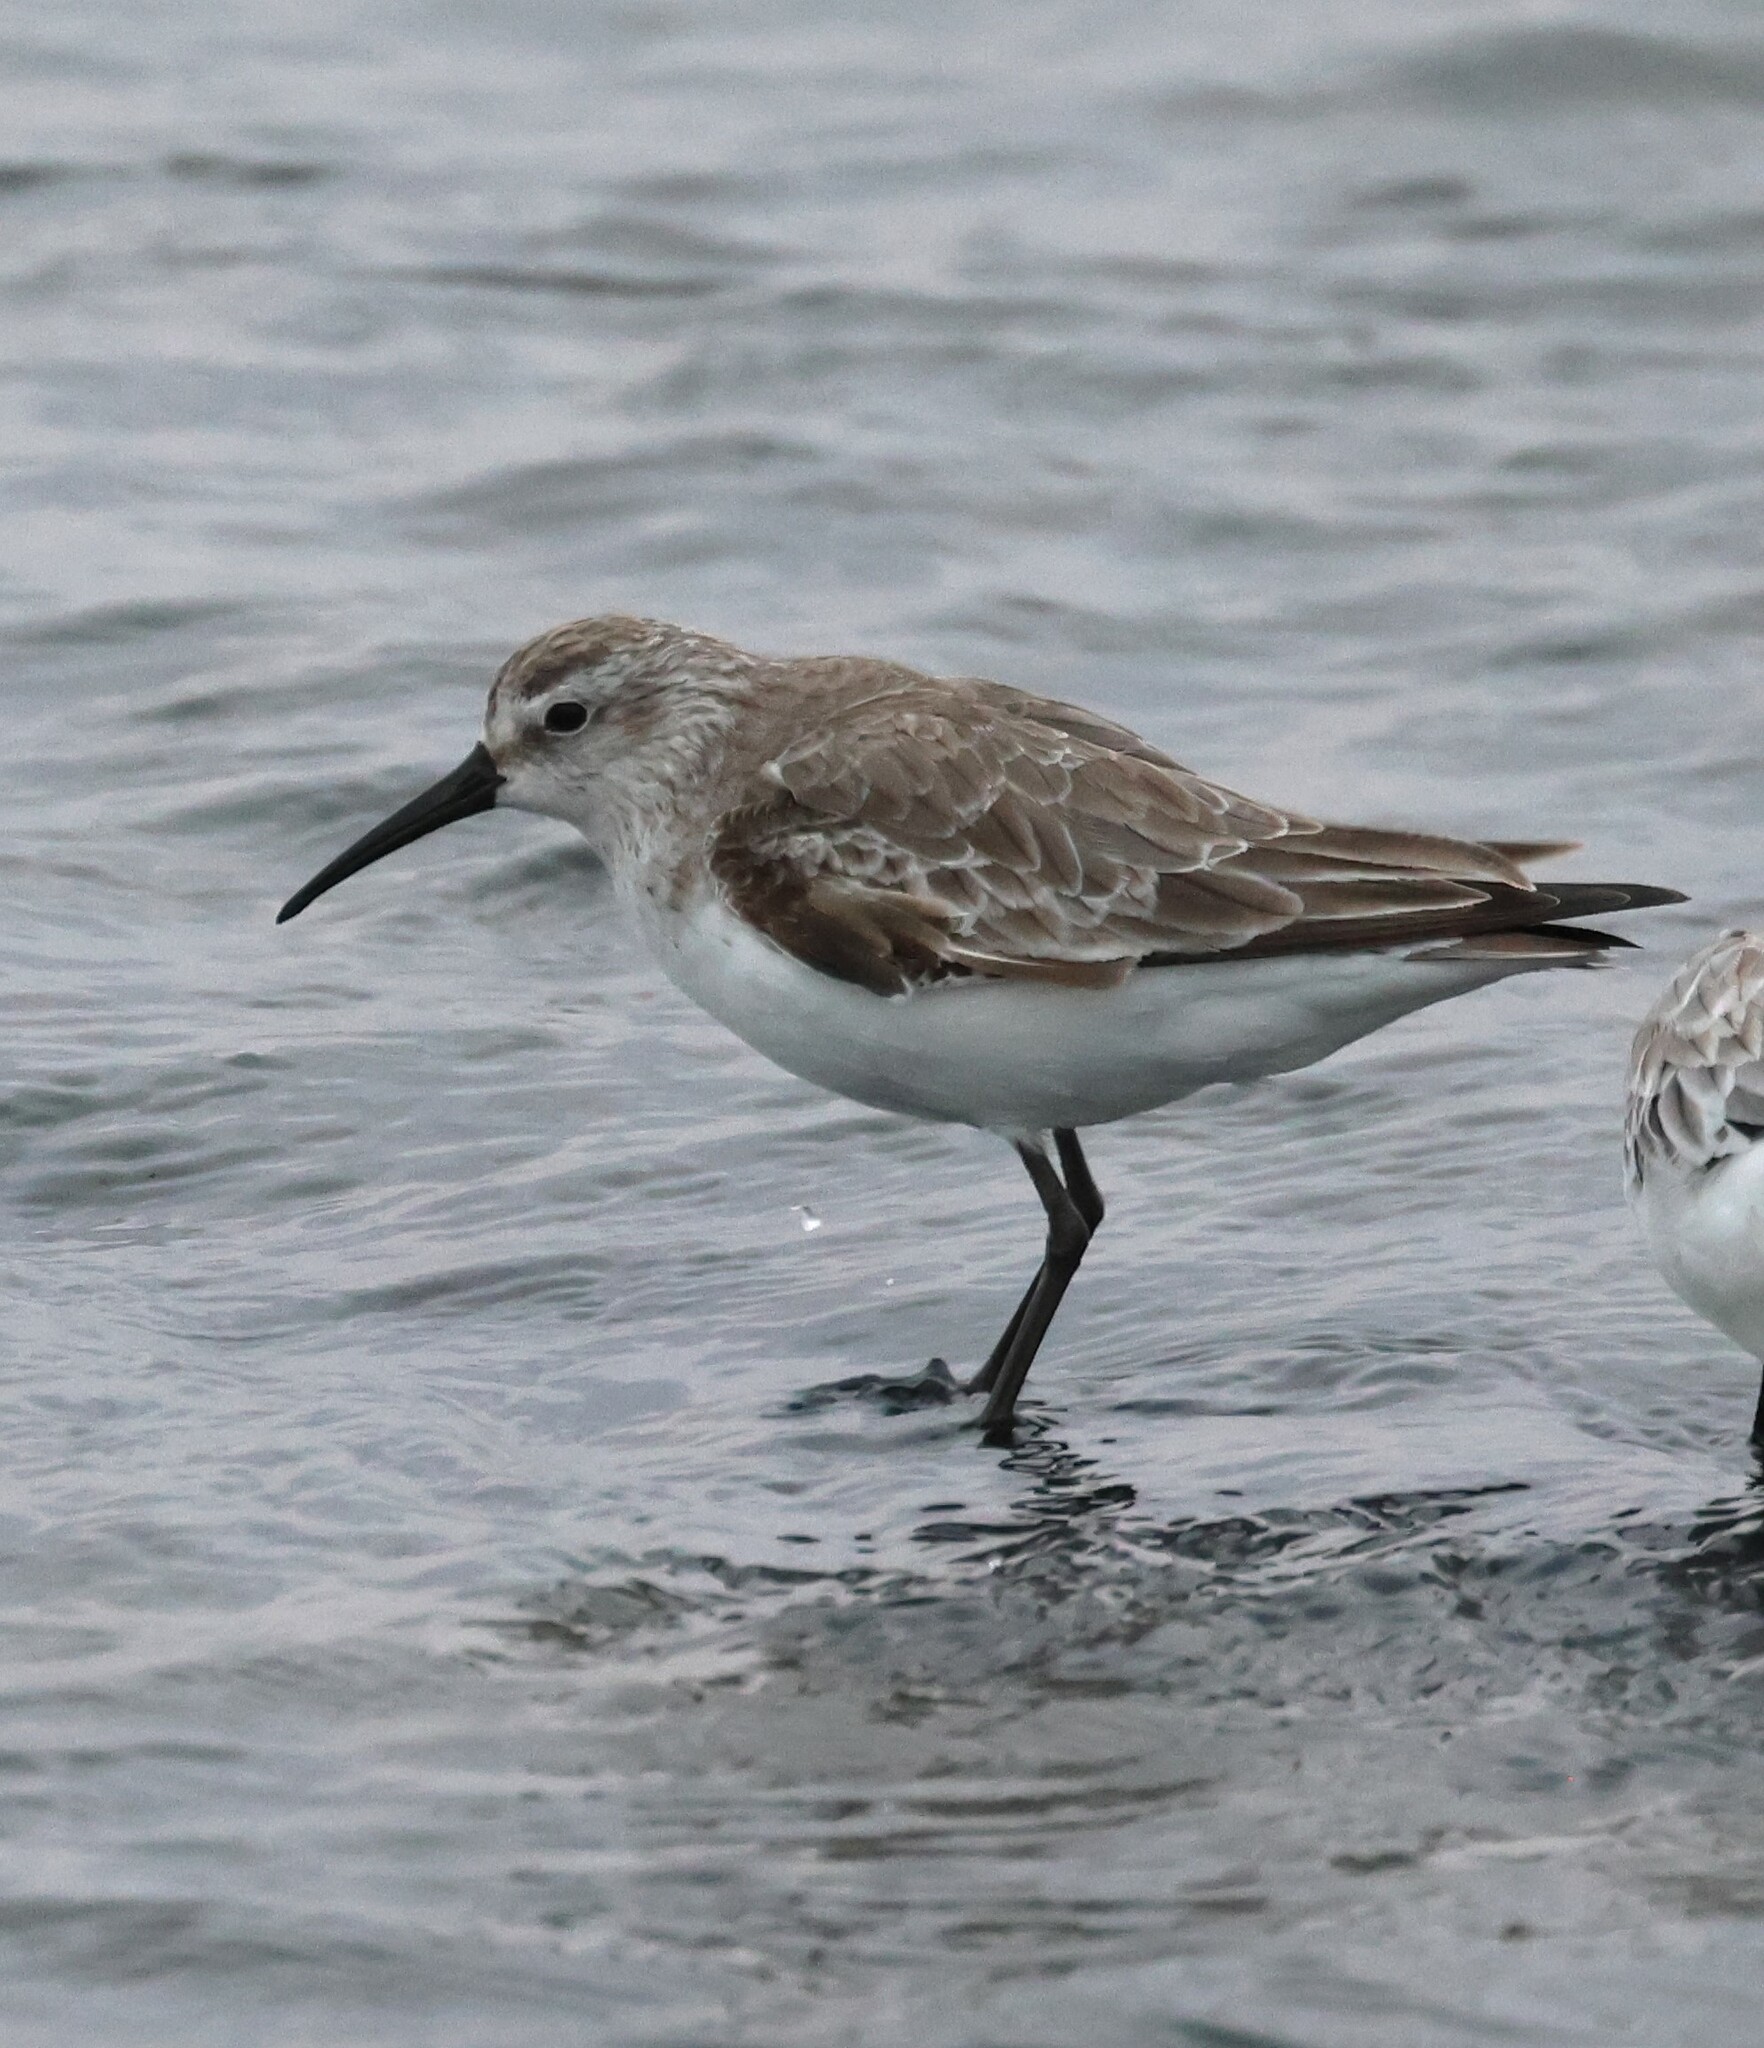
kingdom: Animalia
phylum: Chordata
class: Aves
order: Charadriiformes
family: Scolopacidae
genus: Calidris
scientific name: Calidris ferruginea
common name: Curlew sandpiper
